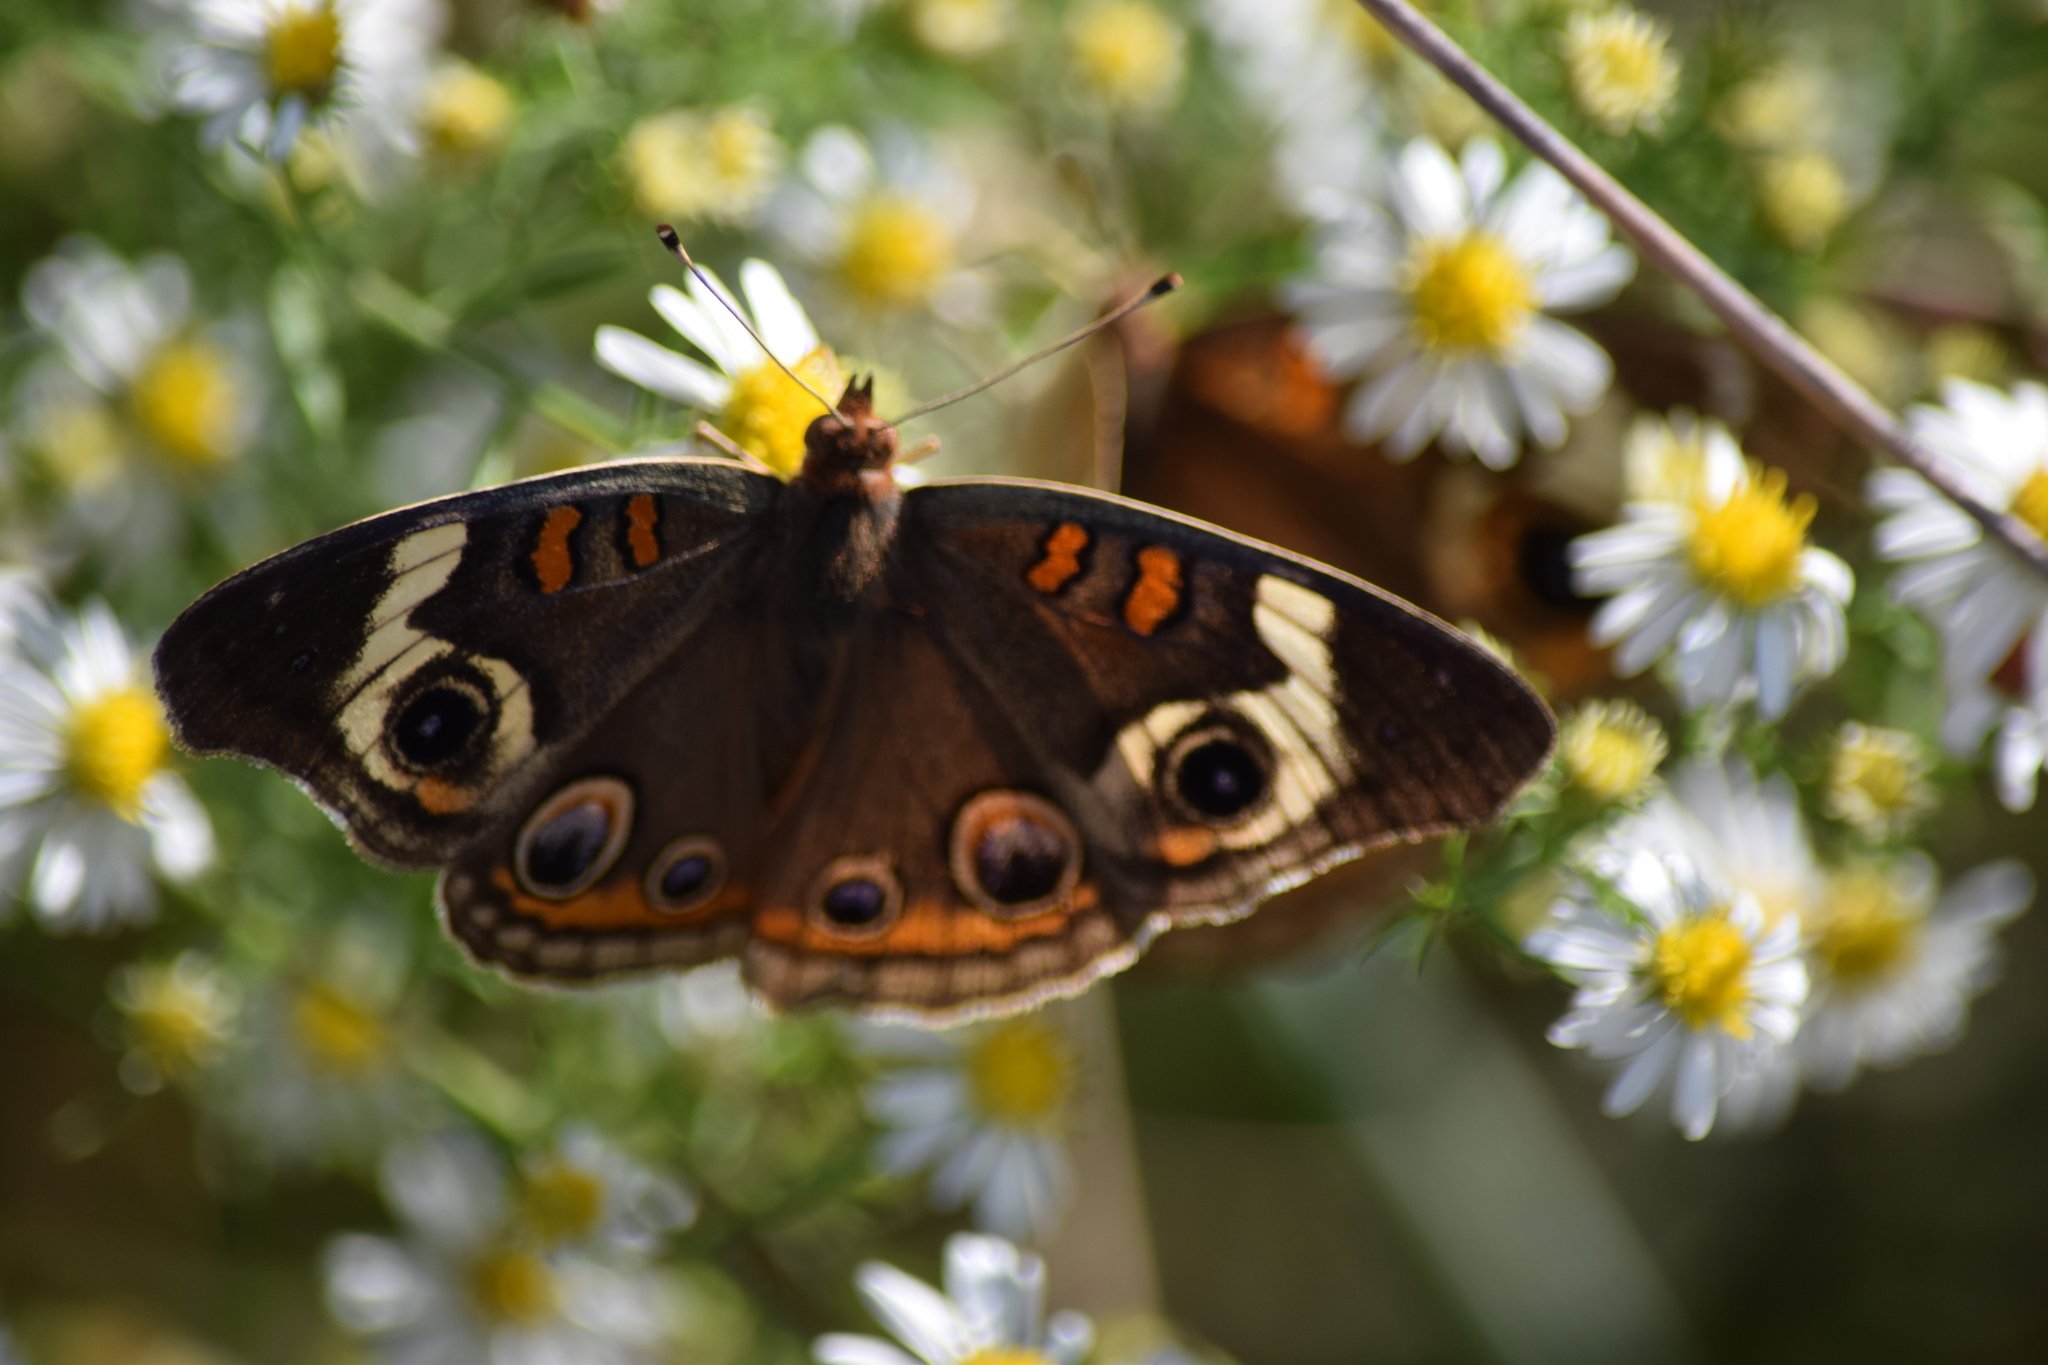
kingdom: Animalia
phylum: Arthropoda
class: Insecta
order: Lepidoptera
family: Nymphalidae
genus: Junonia
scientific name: Junonia coenia
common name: Common buckeye
